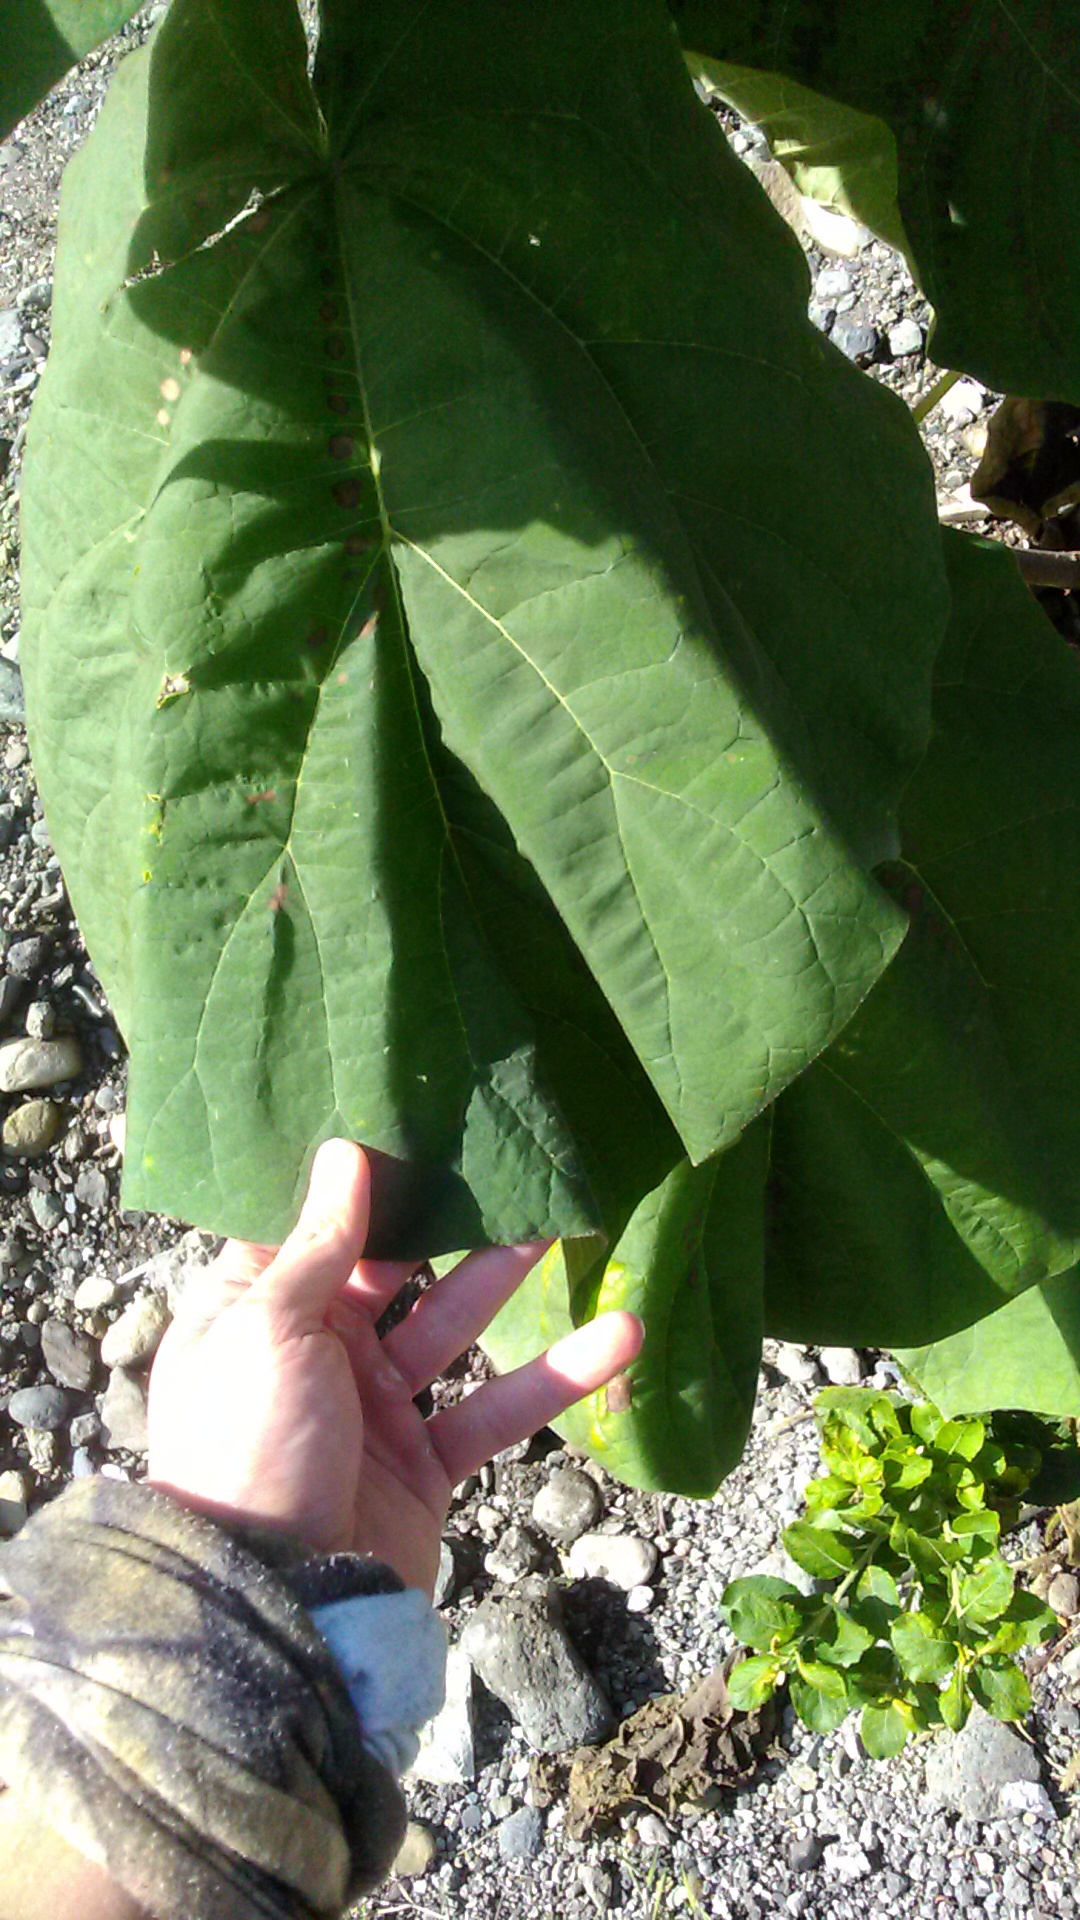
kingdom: Plantae
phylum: Tracheophyta
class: Magnoliopsida
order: Lamiales
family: Paulowniaceae
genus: Paulownia
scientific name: Paulownia tomentosa
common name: Foxglove-tree
